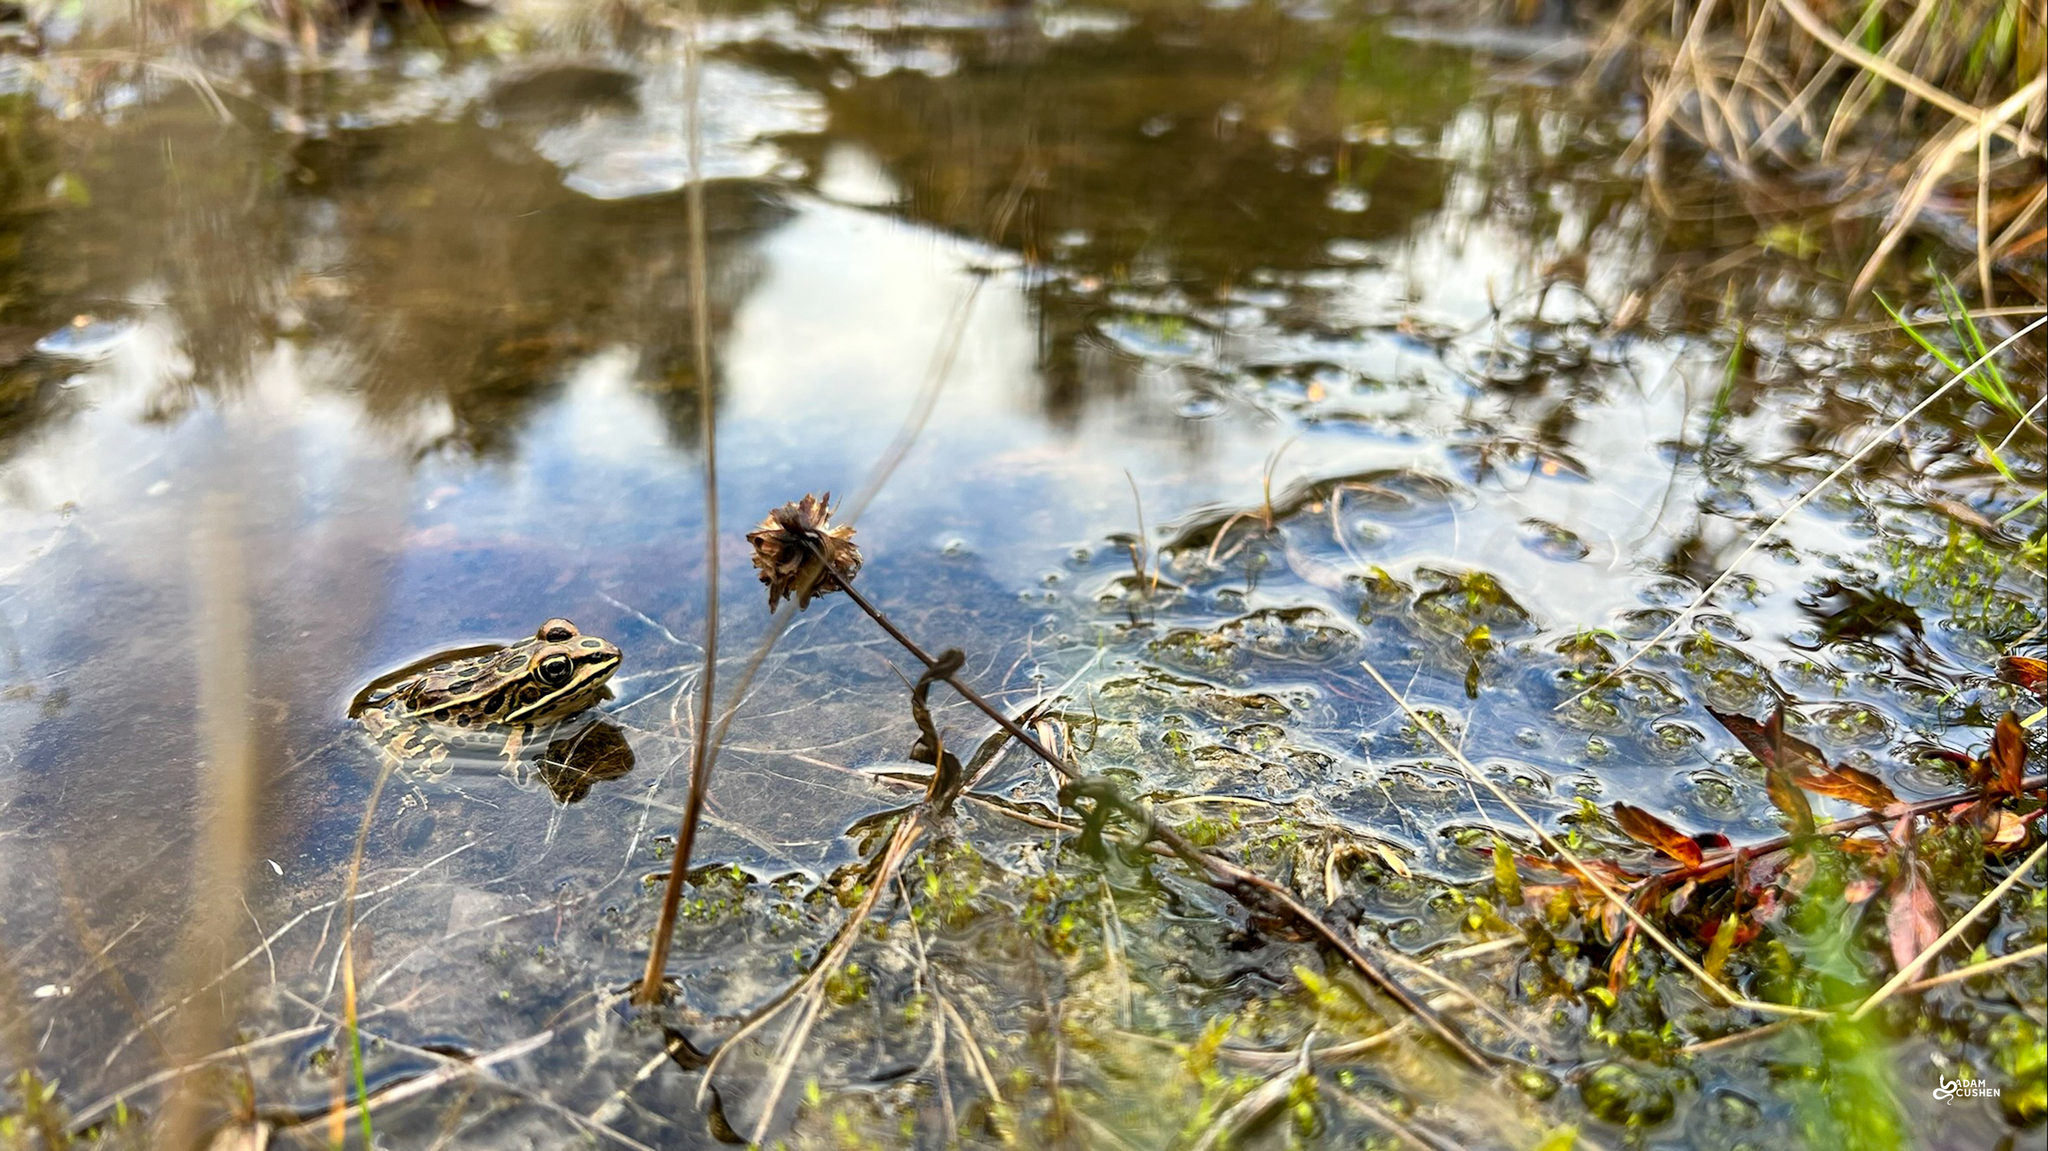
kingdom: Animalia
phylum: Chordata
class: Amphibia
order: Anura
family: Ranidae
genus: Lithobates
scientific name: Lithobates pipiens
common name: Northern leopard frog
